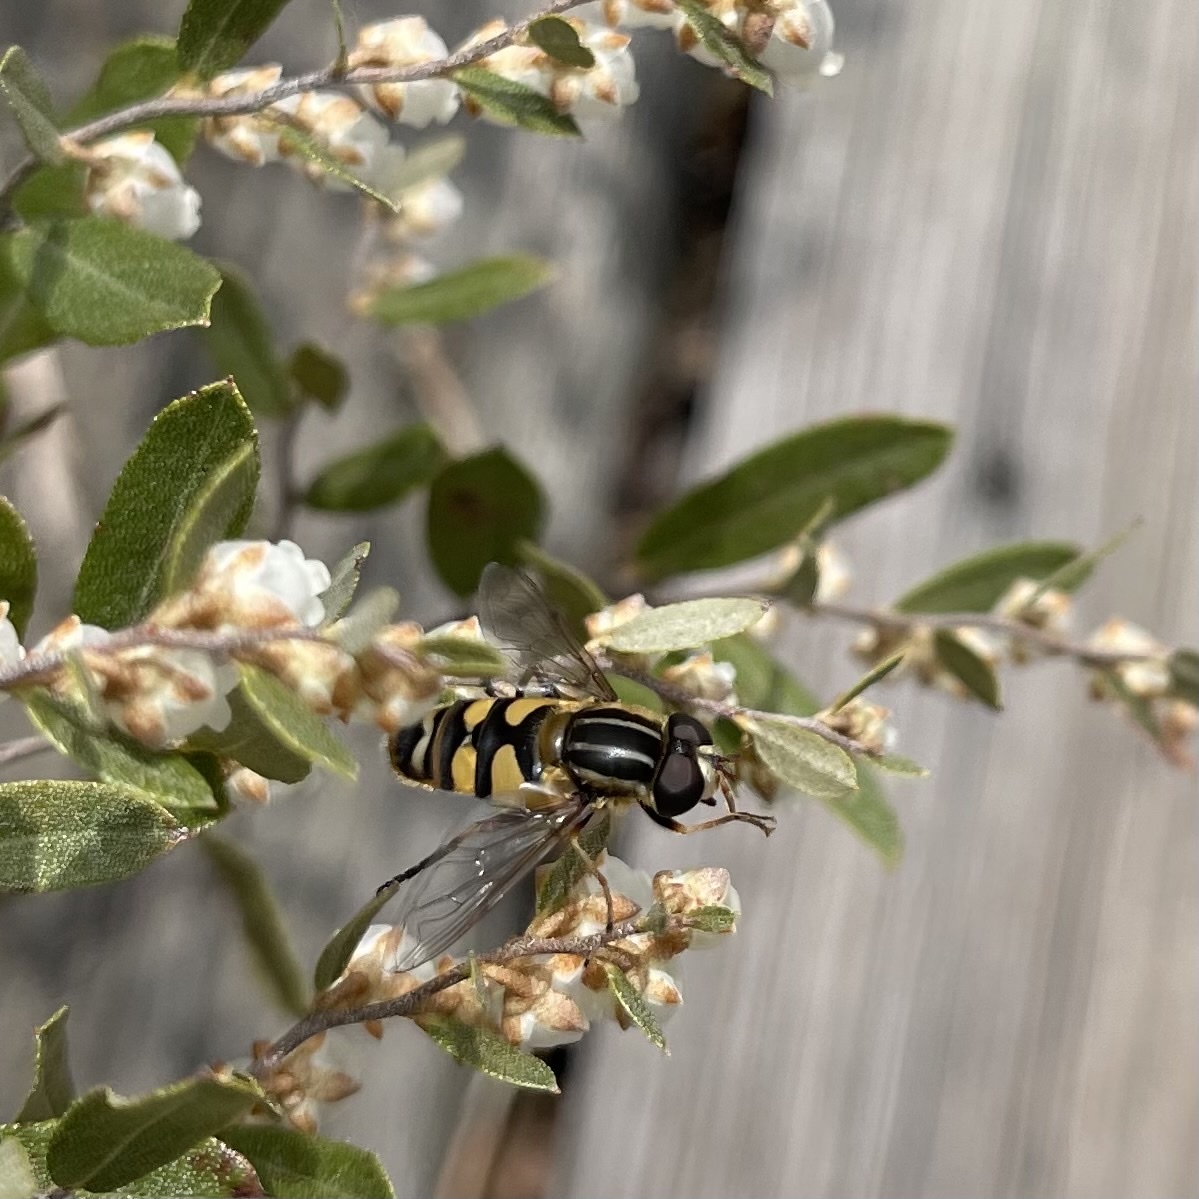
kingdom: Animalia
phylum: Arthropoda
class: Insecta
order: Diptera
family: Syrphidae
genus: Helophilus
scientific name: Helophilus fasciatus
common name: Narrow-headed marsh fly
